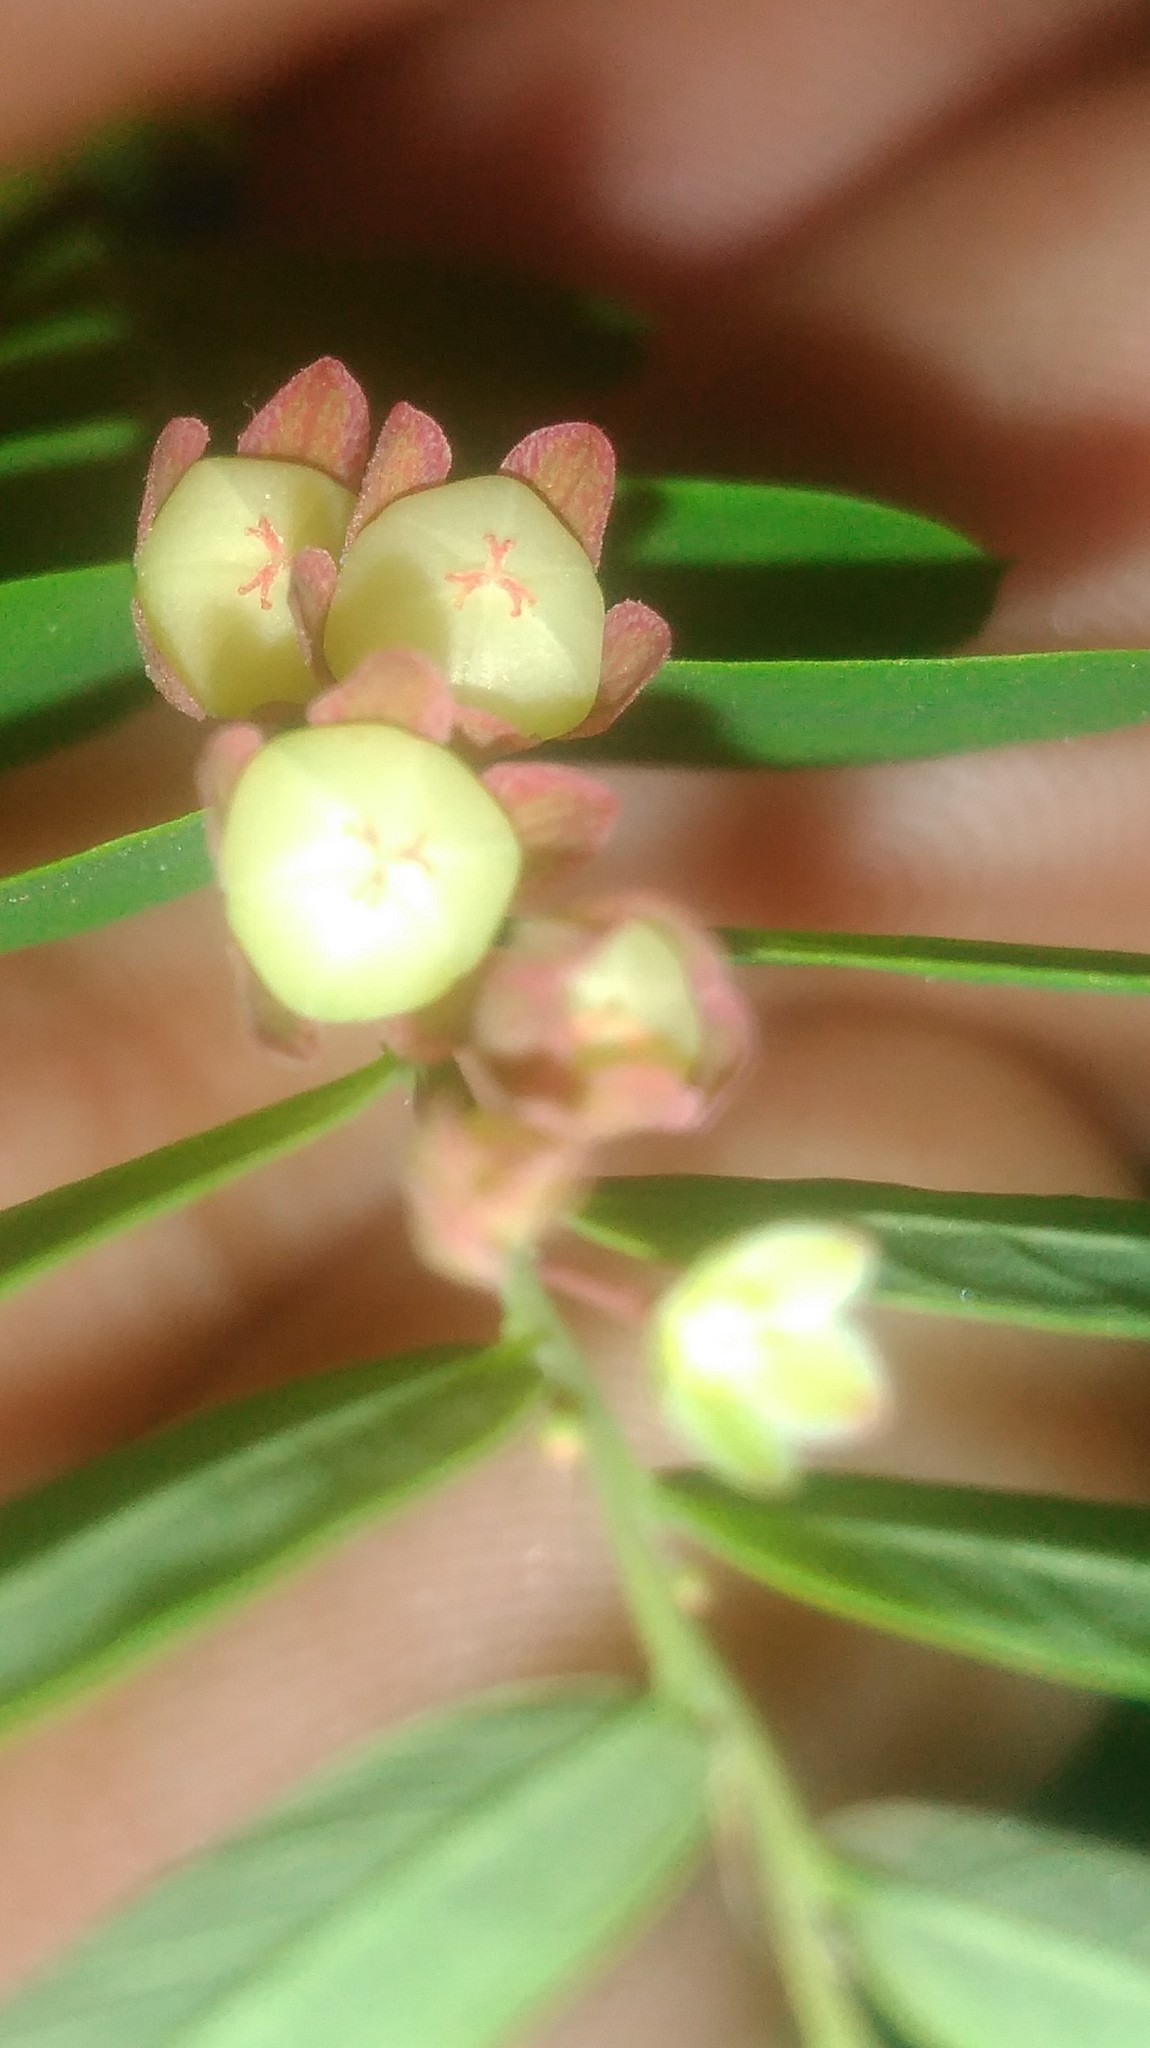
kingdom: Plantae
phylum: Tracheophyta
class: Magnoliopsida
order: Malpighiales
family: Phyllanthaceae
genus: Phyllanthus
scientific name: Phyllanthus niruri
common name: Niruri
